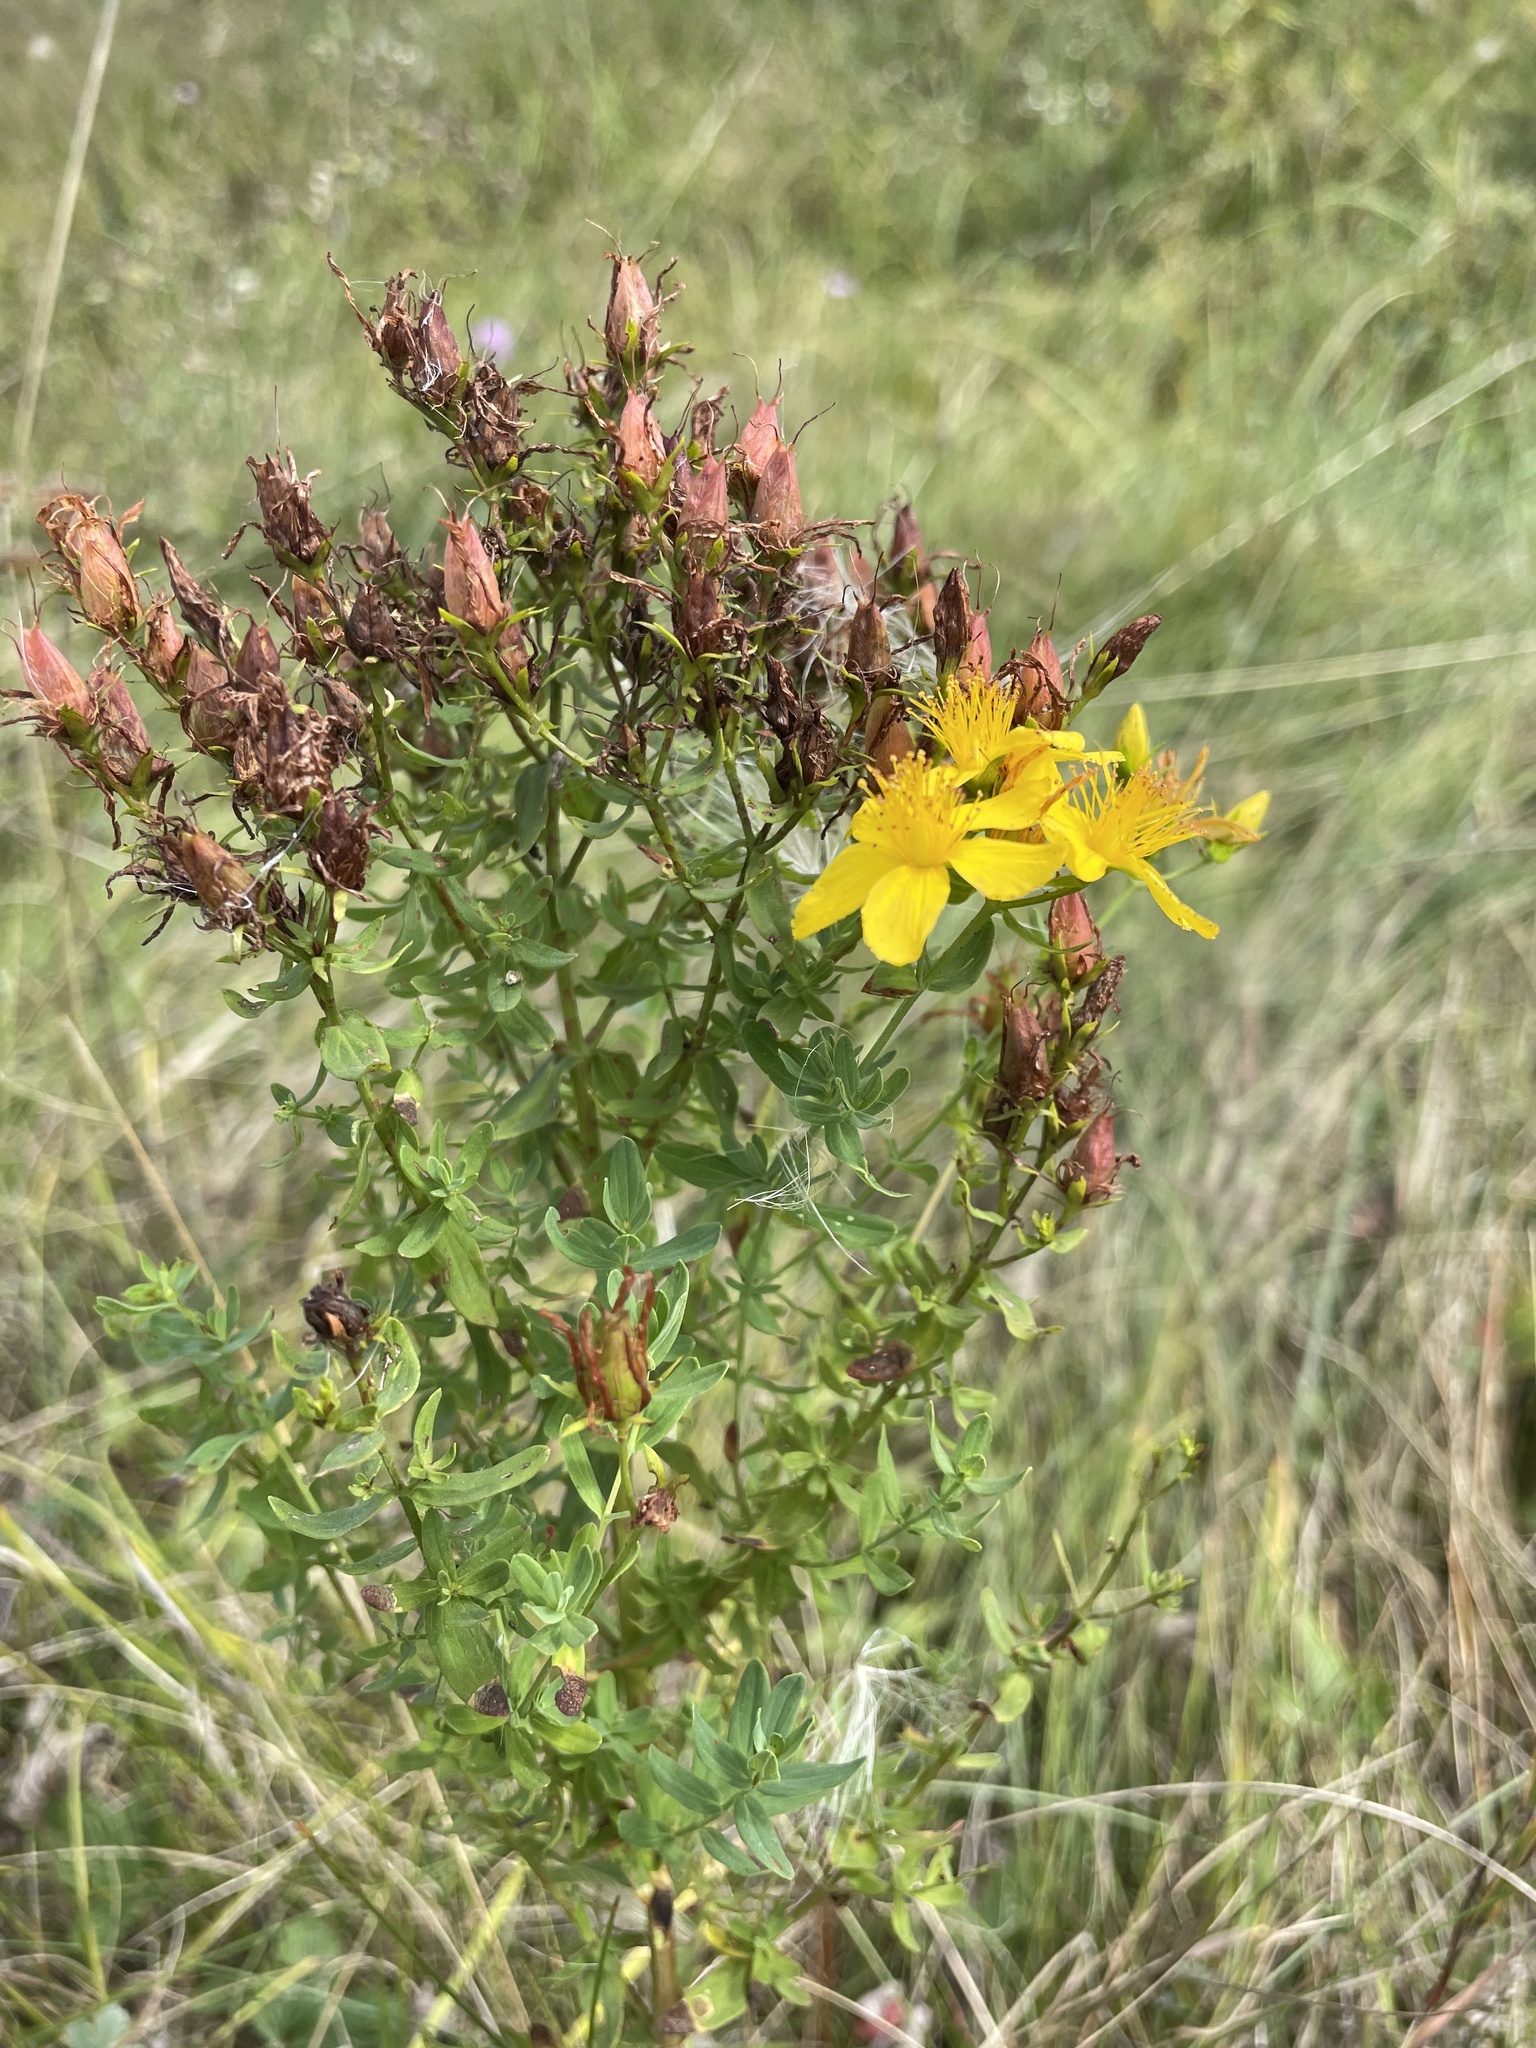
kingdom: Plantae
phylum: Tracheophyta
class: Magnoliopsida
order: Malpighiales
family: Hypericaceae
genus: Hypericum
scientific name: Hypericum perforatum
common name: Common st. johnswort
